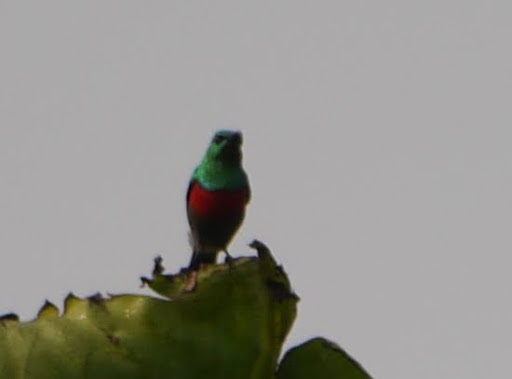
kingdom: Animalia
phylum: Chordata
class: Aves
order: Passeriformes
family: Nectariniidae
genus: Cinnyris
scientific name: Cinnyris chloropygius
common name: Olive-bellied sunbird
